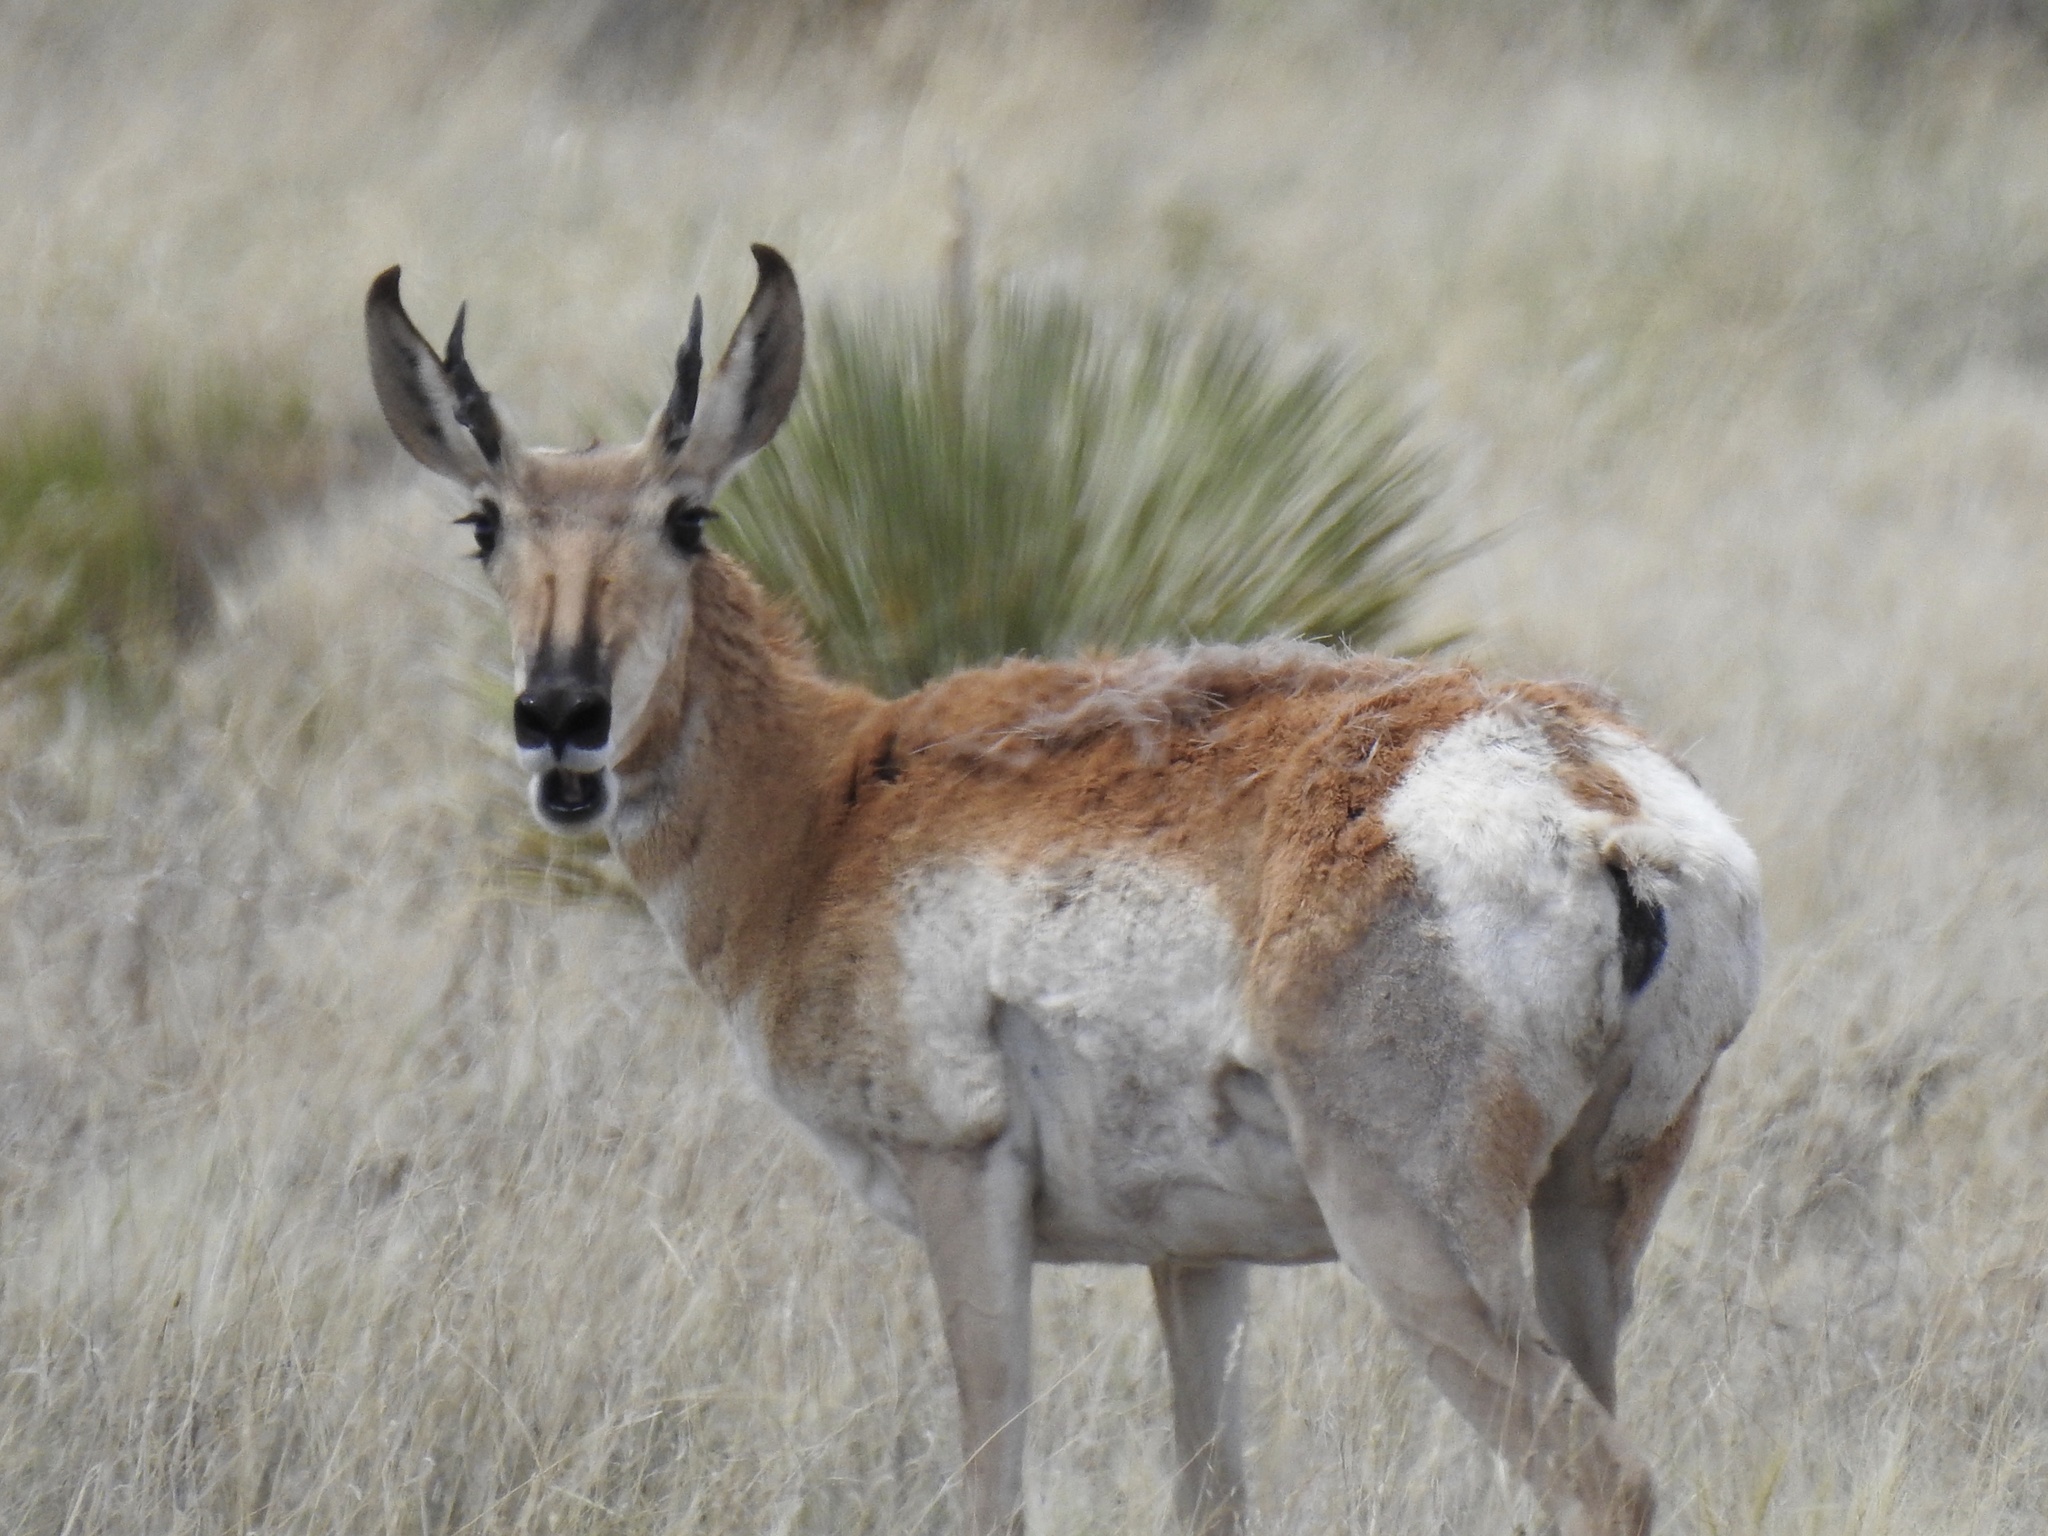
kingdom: Animalia
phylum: Chordata
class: Mammalia
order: Artiodactyla
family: Antilocapridae
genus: Antilocapra
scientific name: Antilocapra americana
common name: Pronghorn
